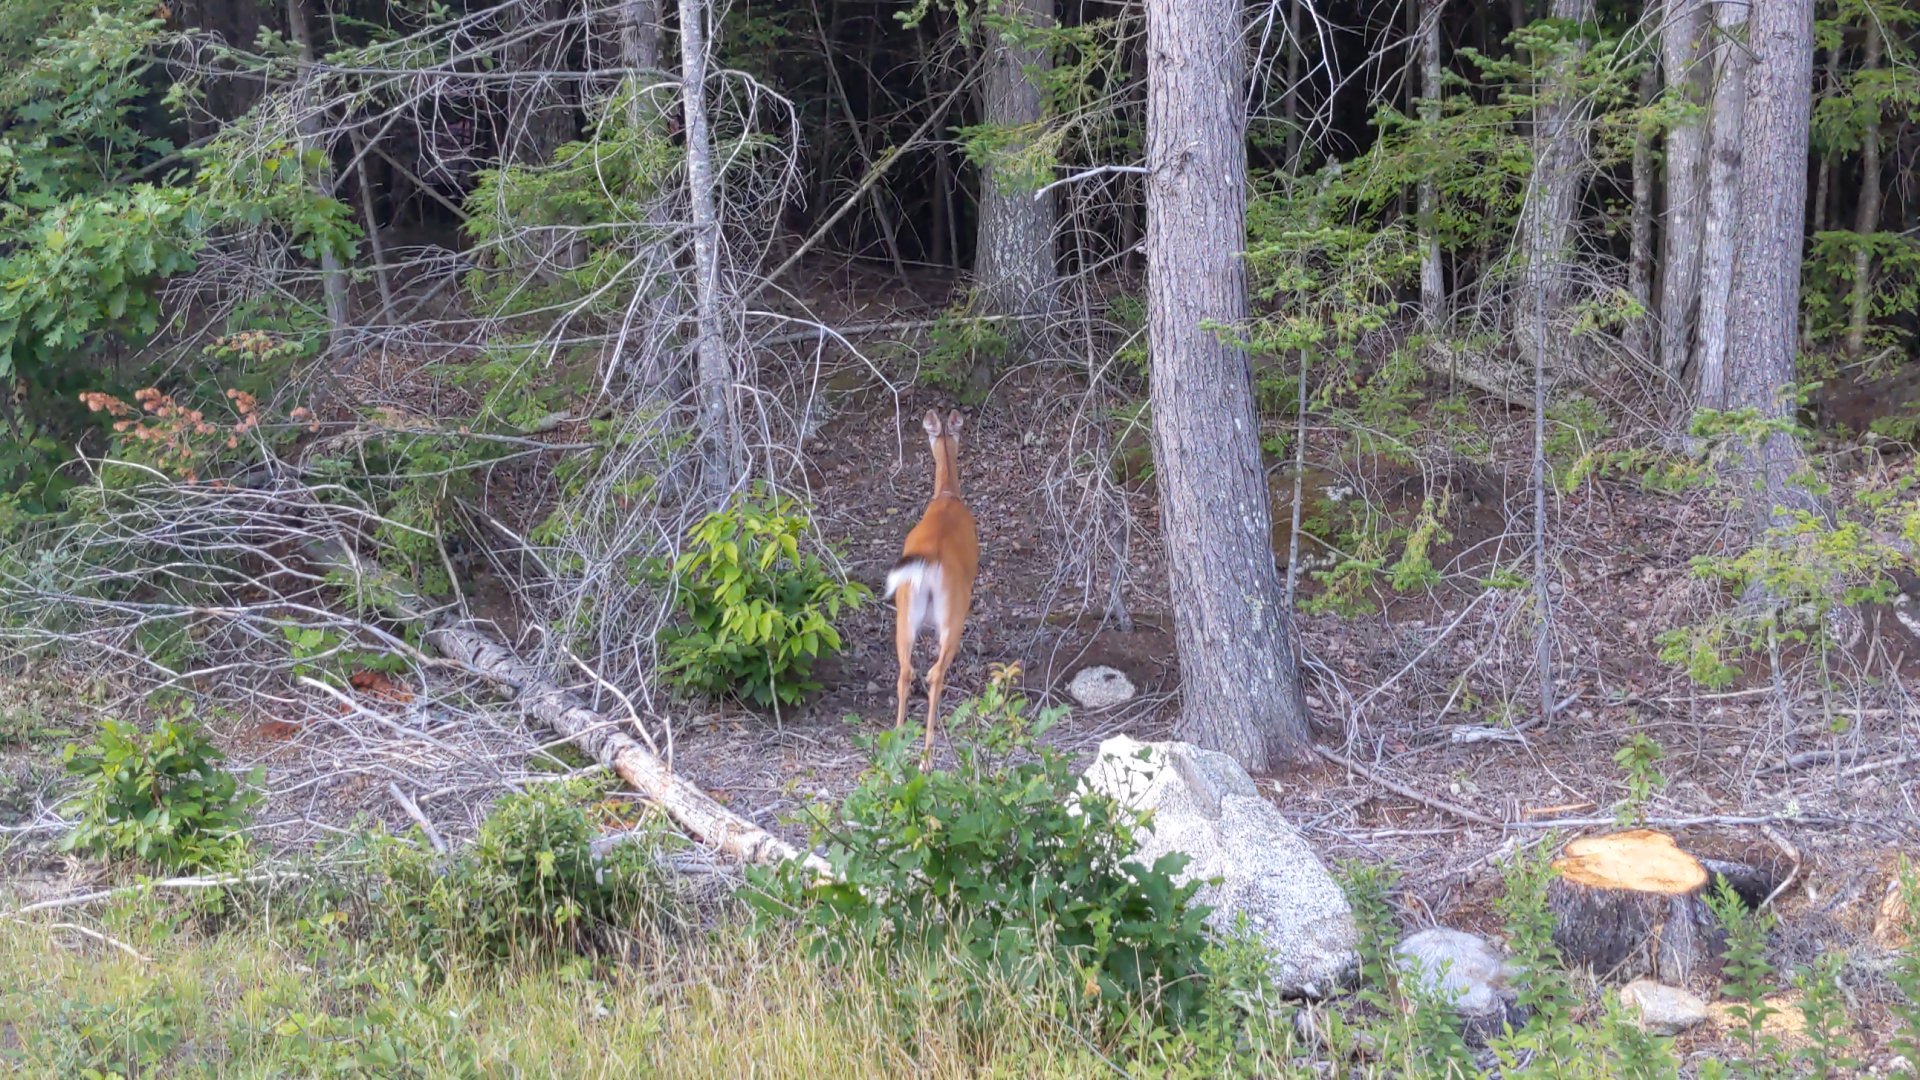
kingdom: Animalia
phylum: Chordata
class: Mammalia
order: Artiodactyla
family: Cervidae
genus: Odocoileus
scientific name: Odocoileus virginianus
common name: White-tailed deer
